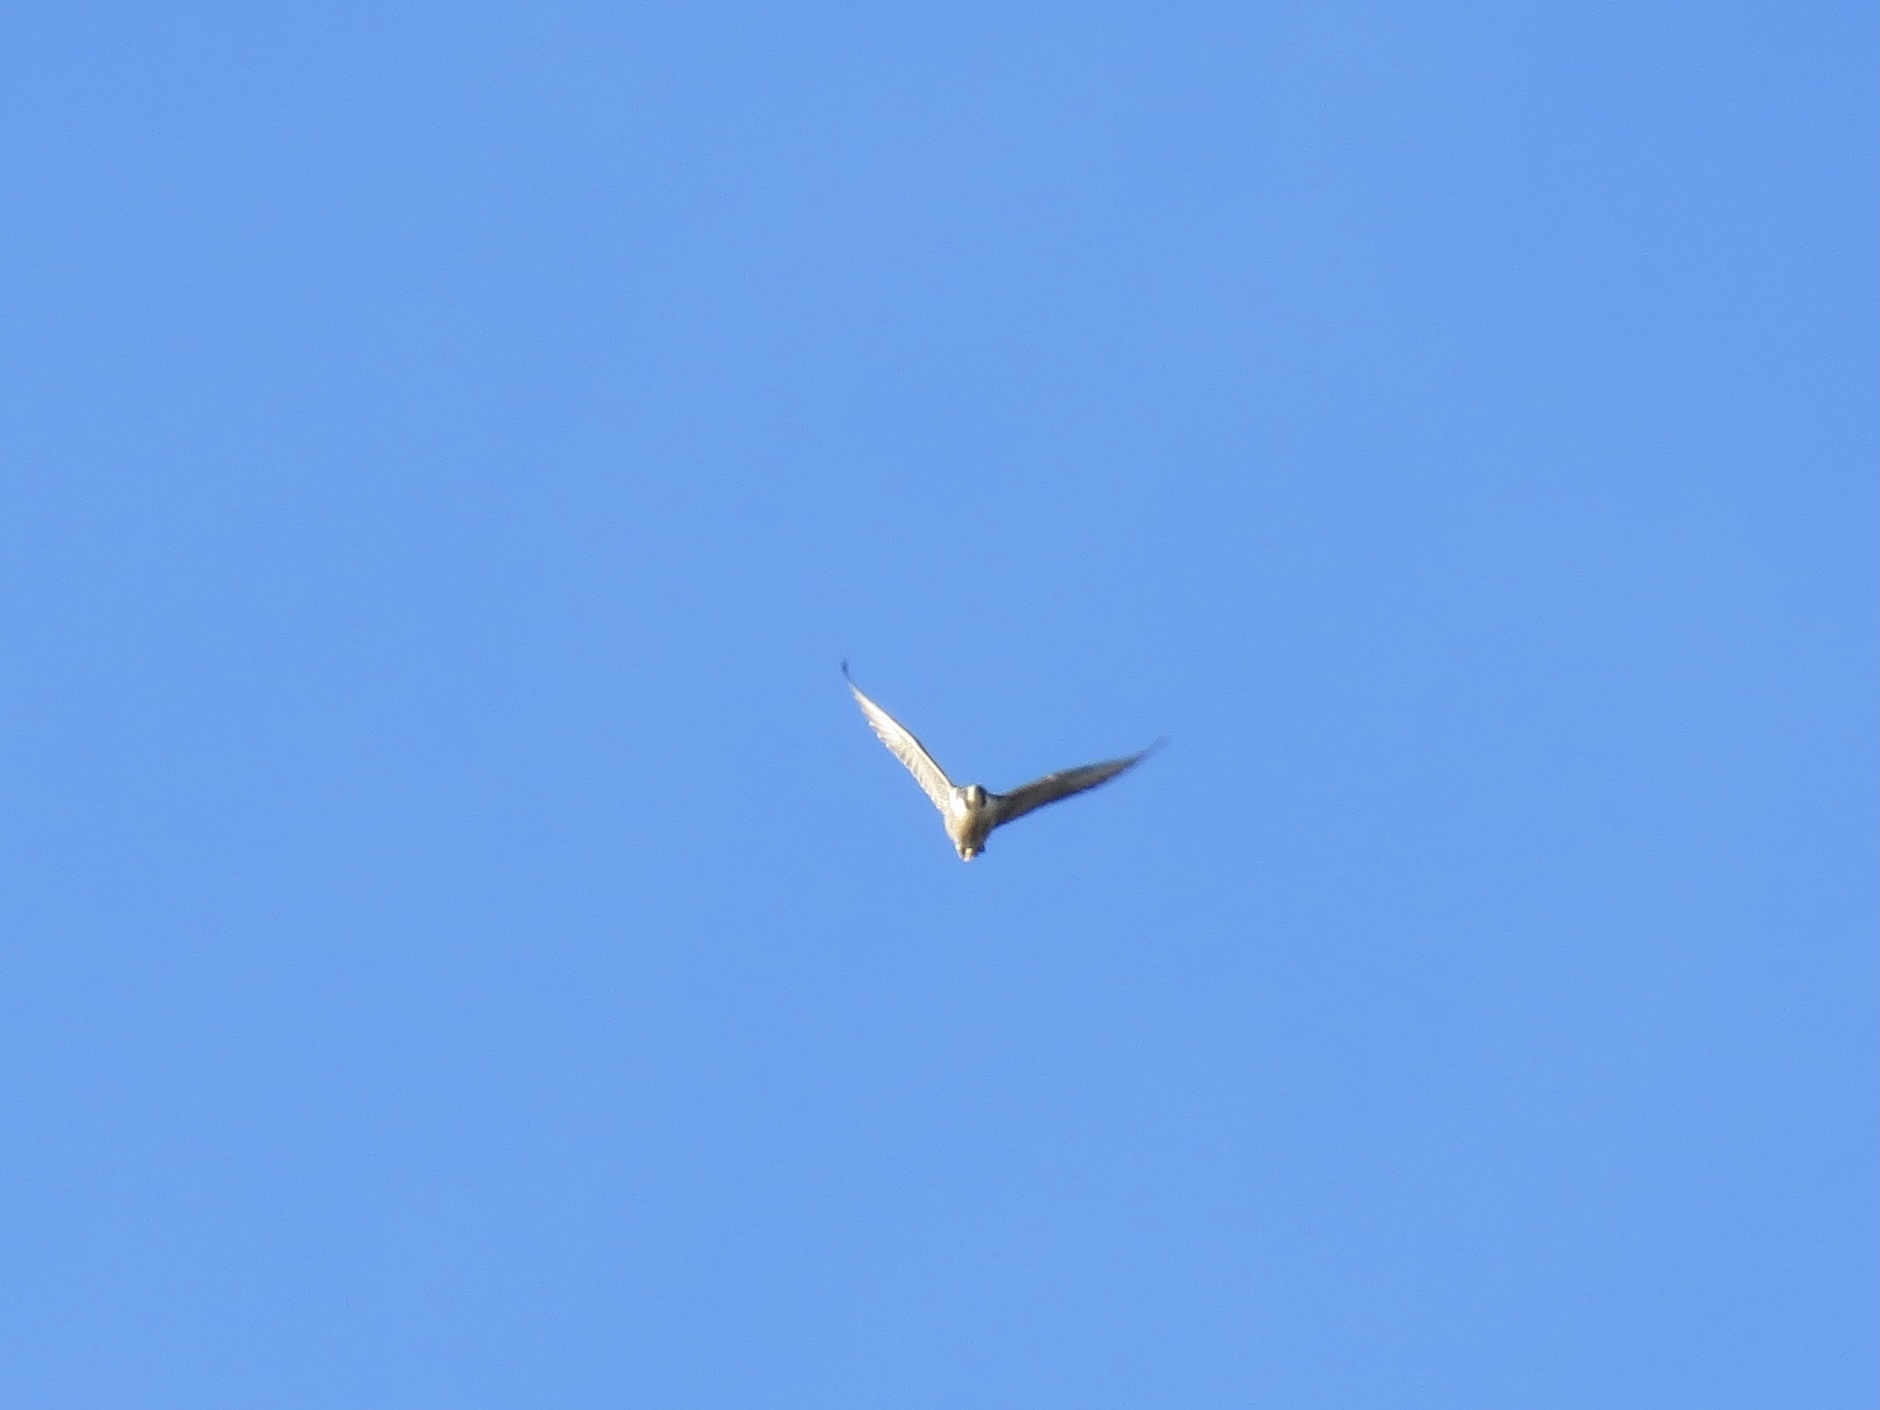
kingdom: Animalia
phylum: Chordata
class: Aves
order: Falconiformes
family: Falconidae
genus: Falco
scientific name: Falco peregrinus
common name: Peregrine falcon
